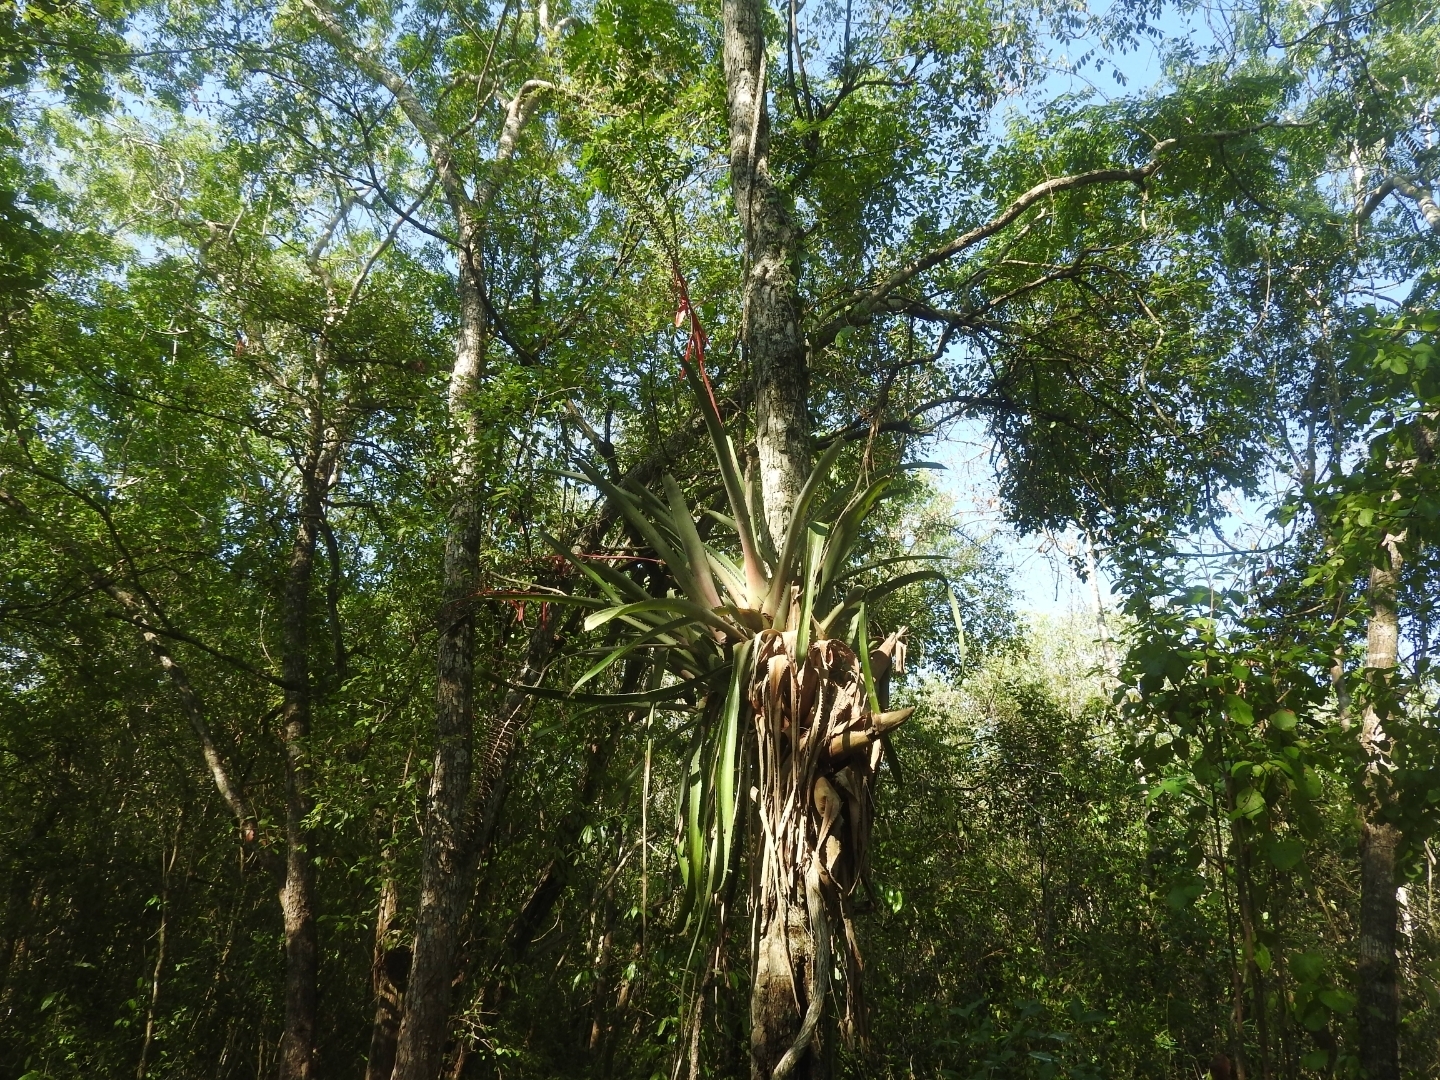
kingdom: Plantae
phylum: Tracheophyta
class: Liliopsida
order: Poales
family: Bromeliaceae
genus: Aechmea
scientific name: Aechmea bracteata
